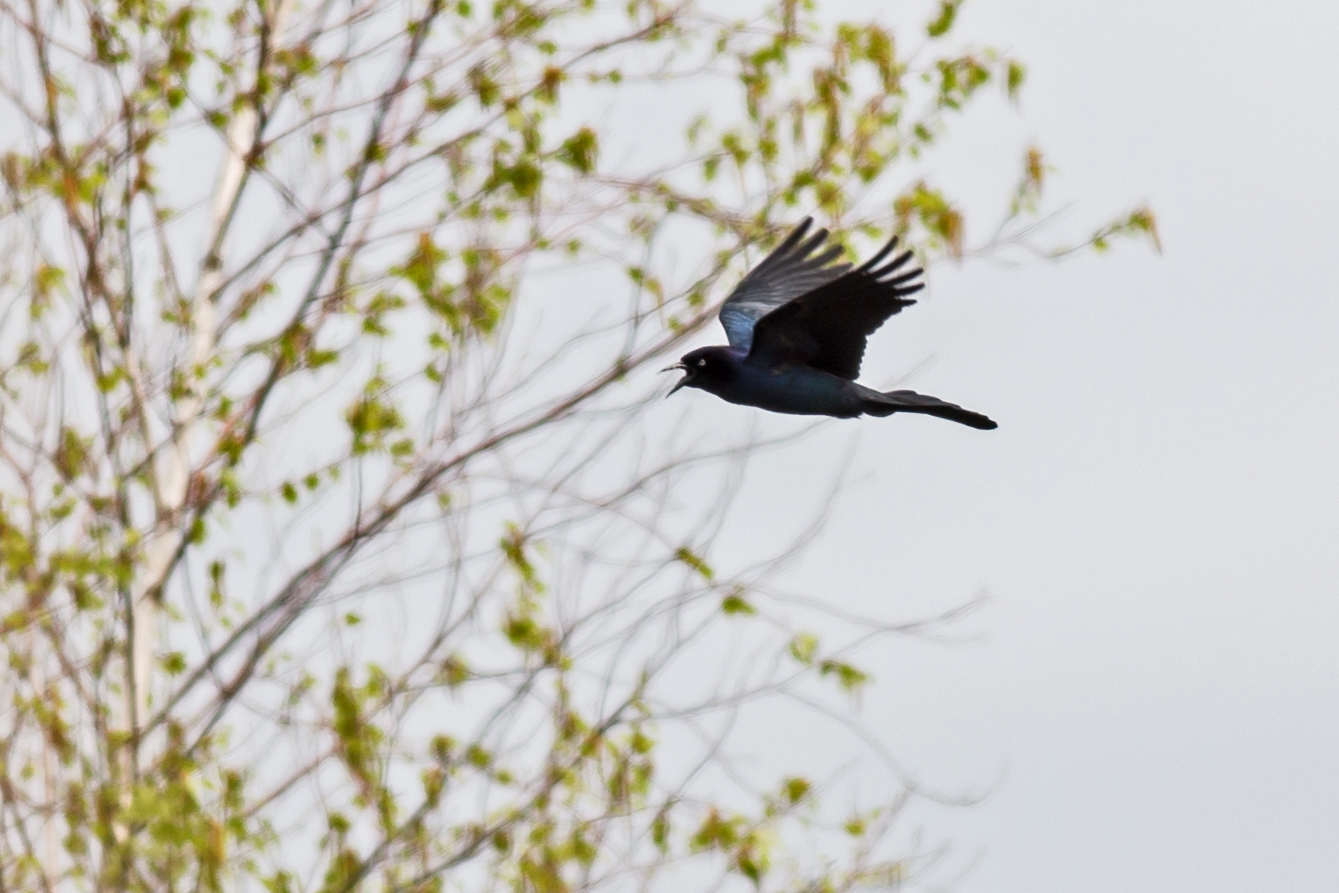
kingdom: Animalia
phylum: Chordata
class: Aves
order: Passeriformes
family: Icteridae
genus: Quiscalus
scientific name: Quiscalus major
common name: Boat-tailed grackle
